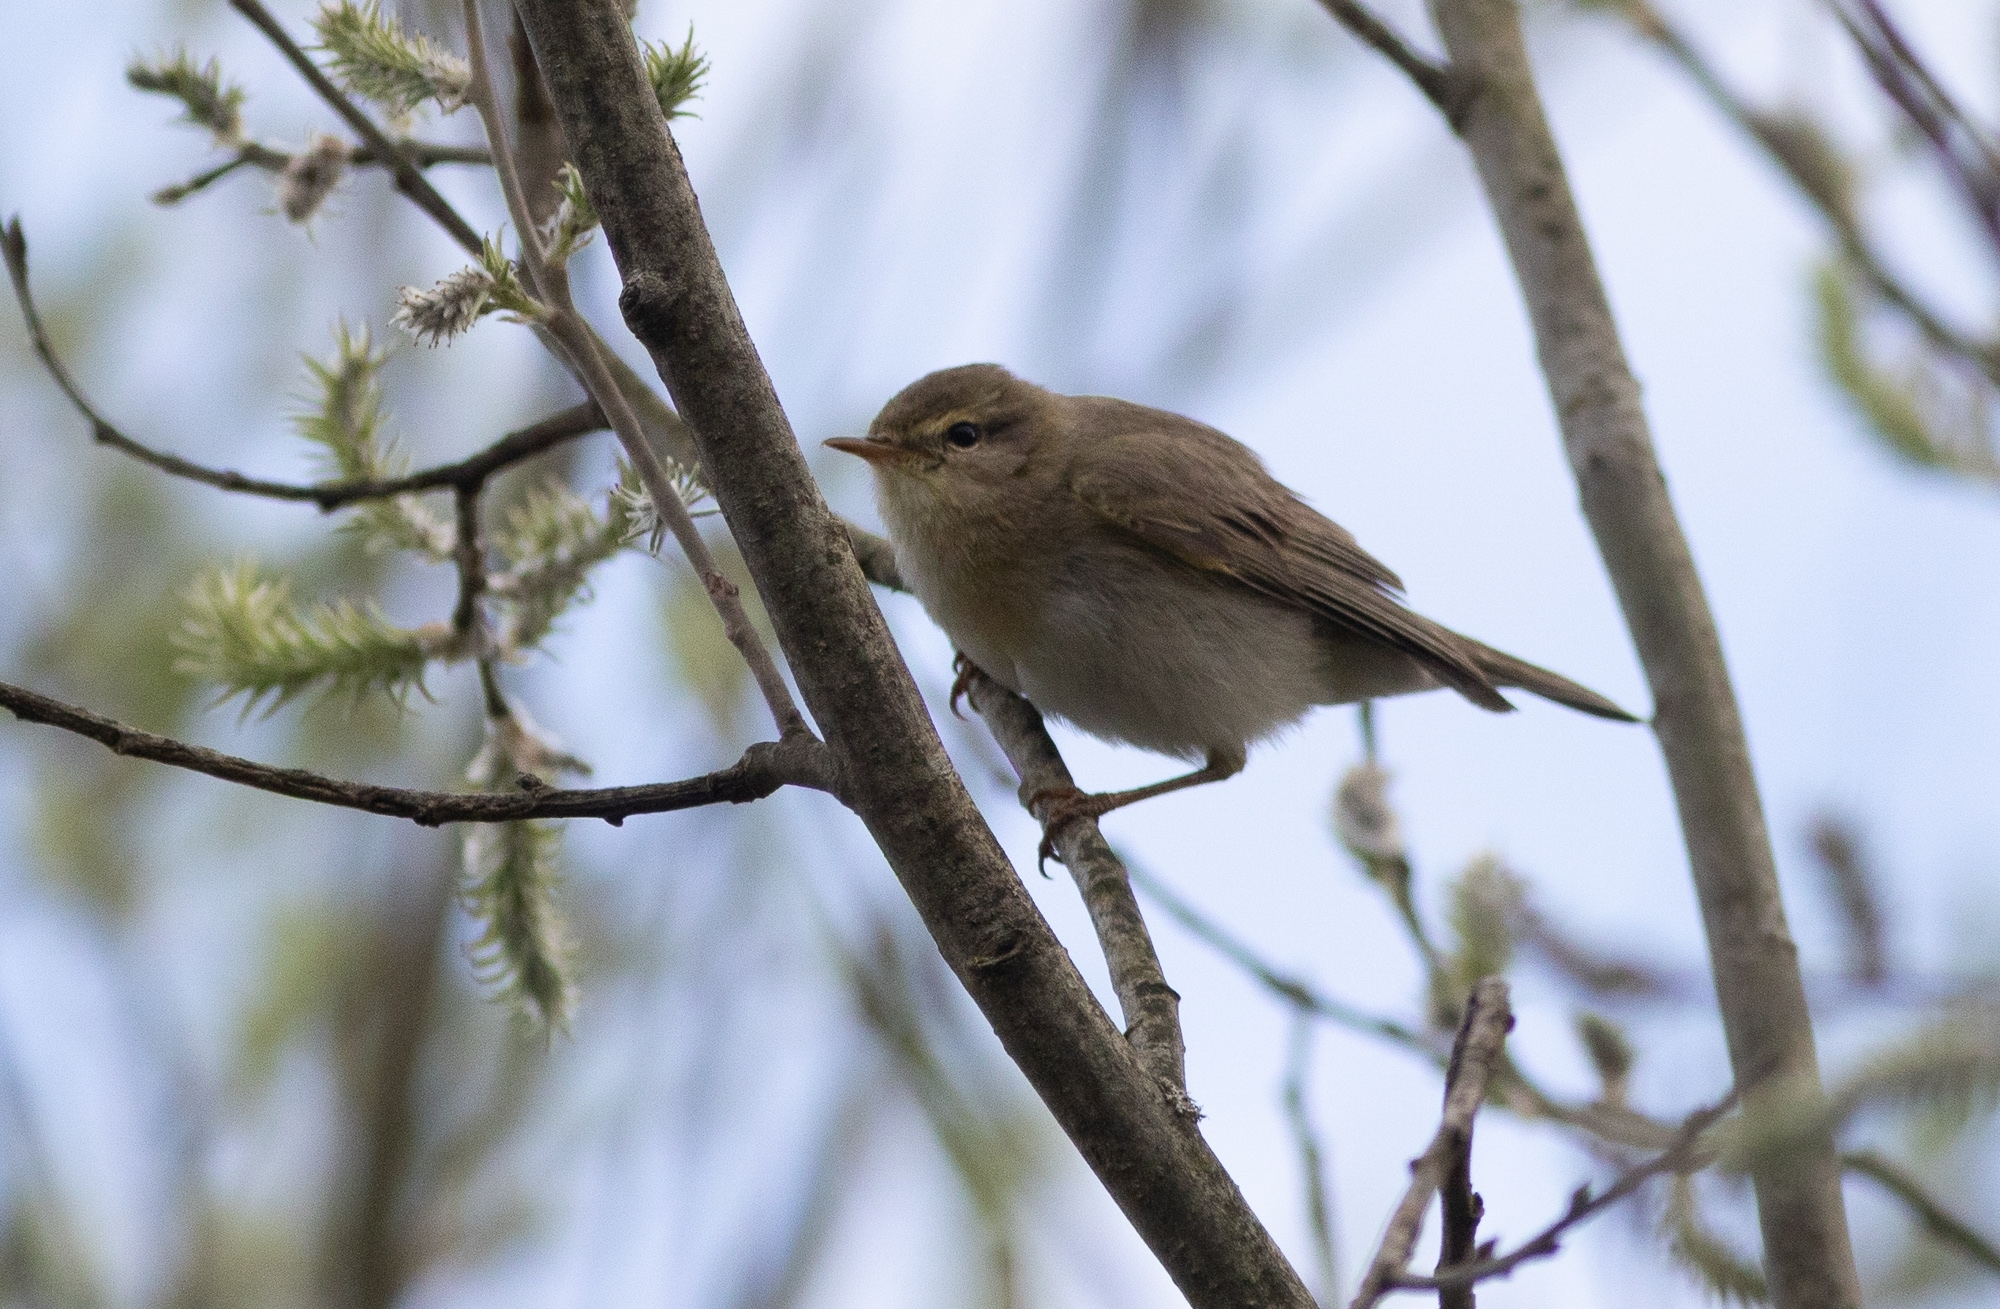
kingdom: Animalia
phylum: Chordata
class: Aves
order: Passeriformes
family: Phylloscopidae
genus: Phylloscopus
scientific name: Phylloscopus trochilus
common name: Willow warbler
